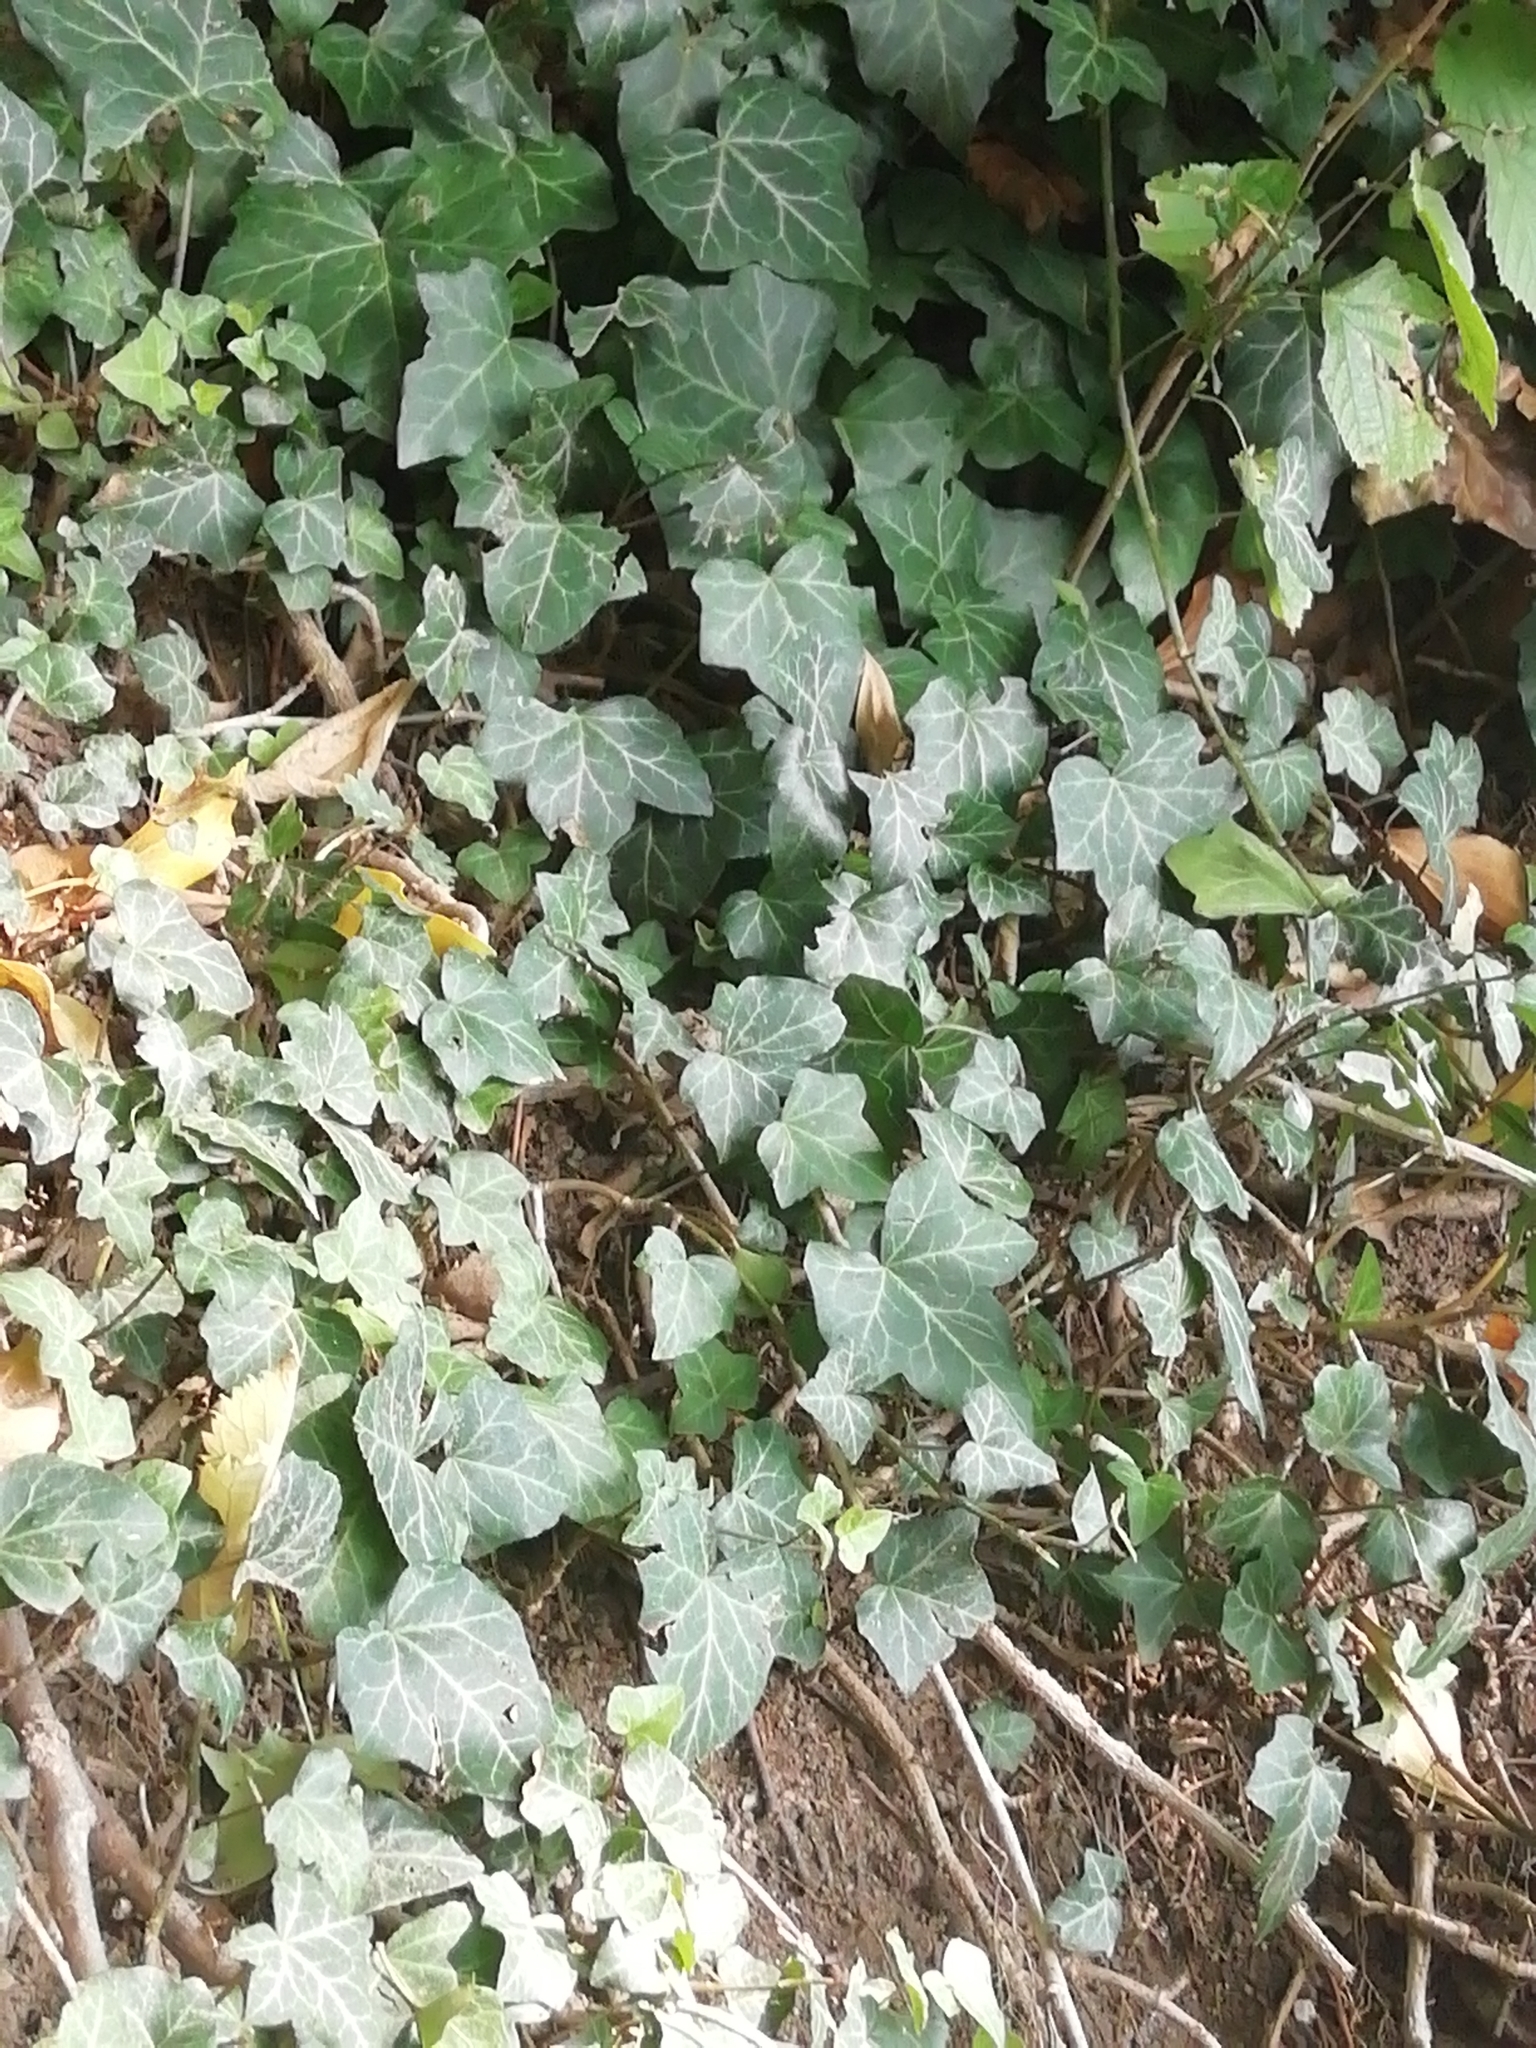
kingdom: Plantae
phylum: Tracheophyta
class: Magnoliopsida
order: Apiales
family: Araliaceae
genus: Hedera
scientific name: Hedera helix
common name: Ivy
